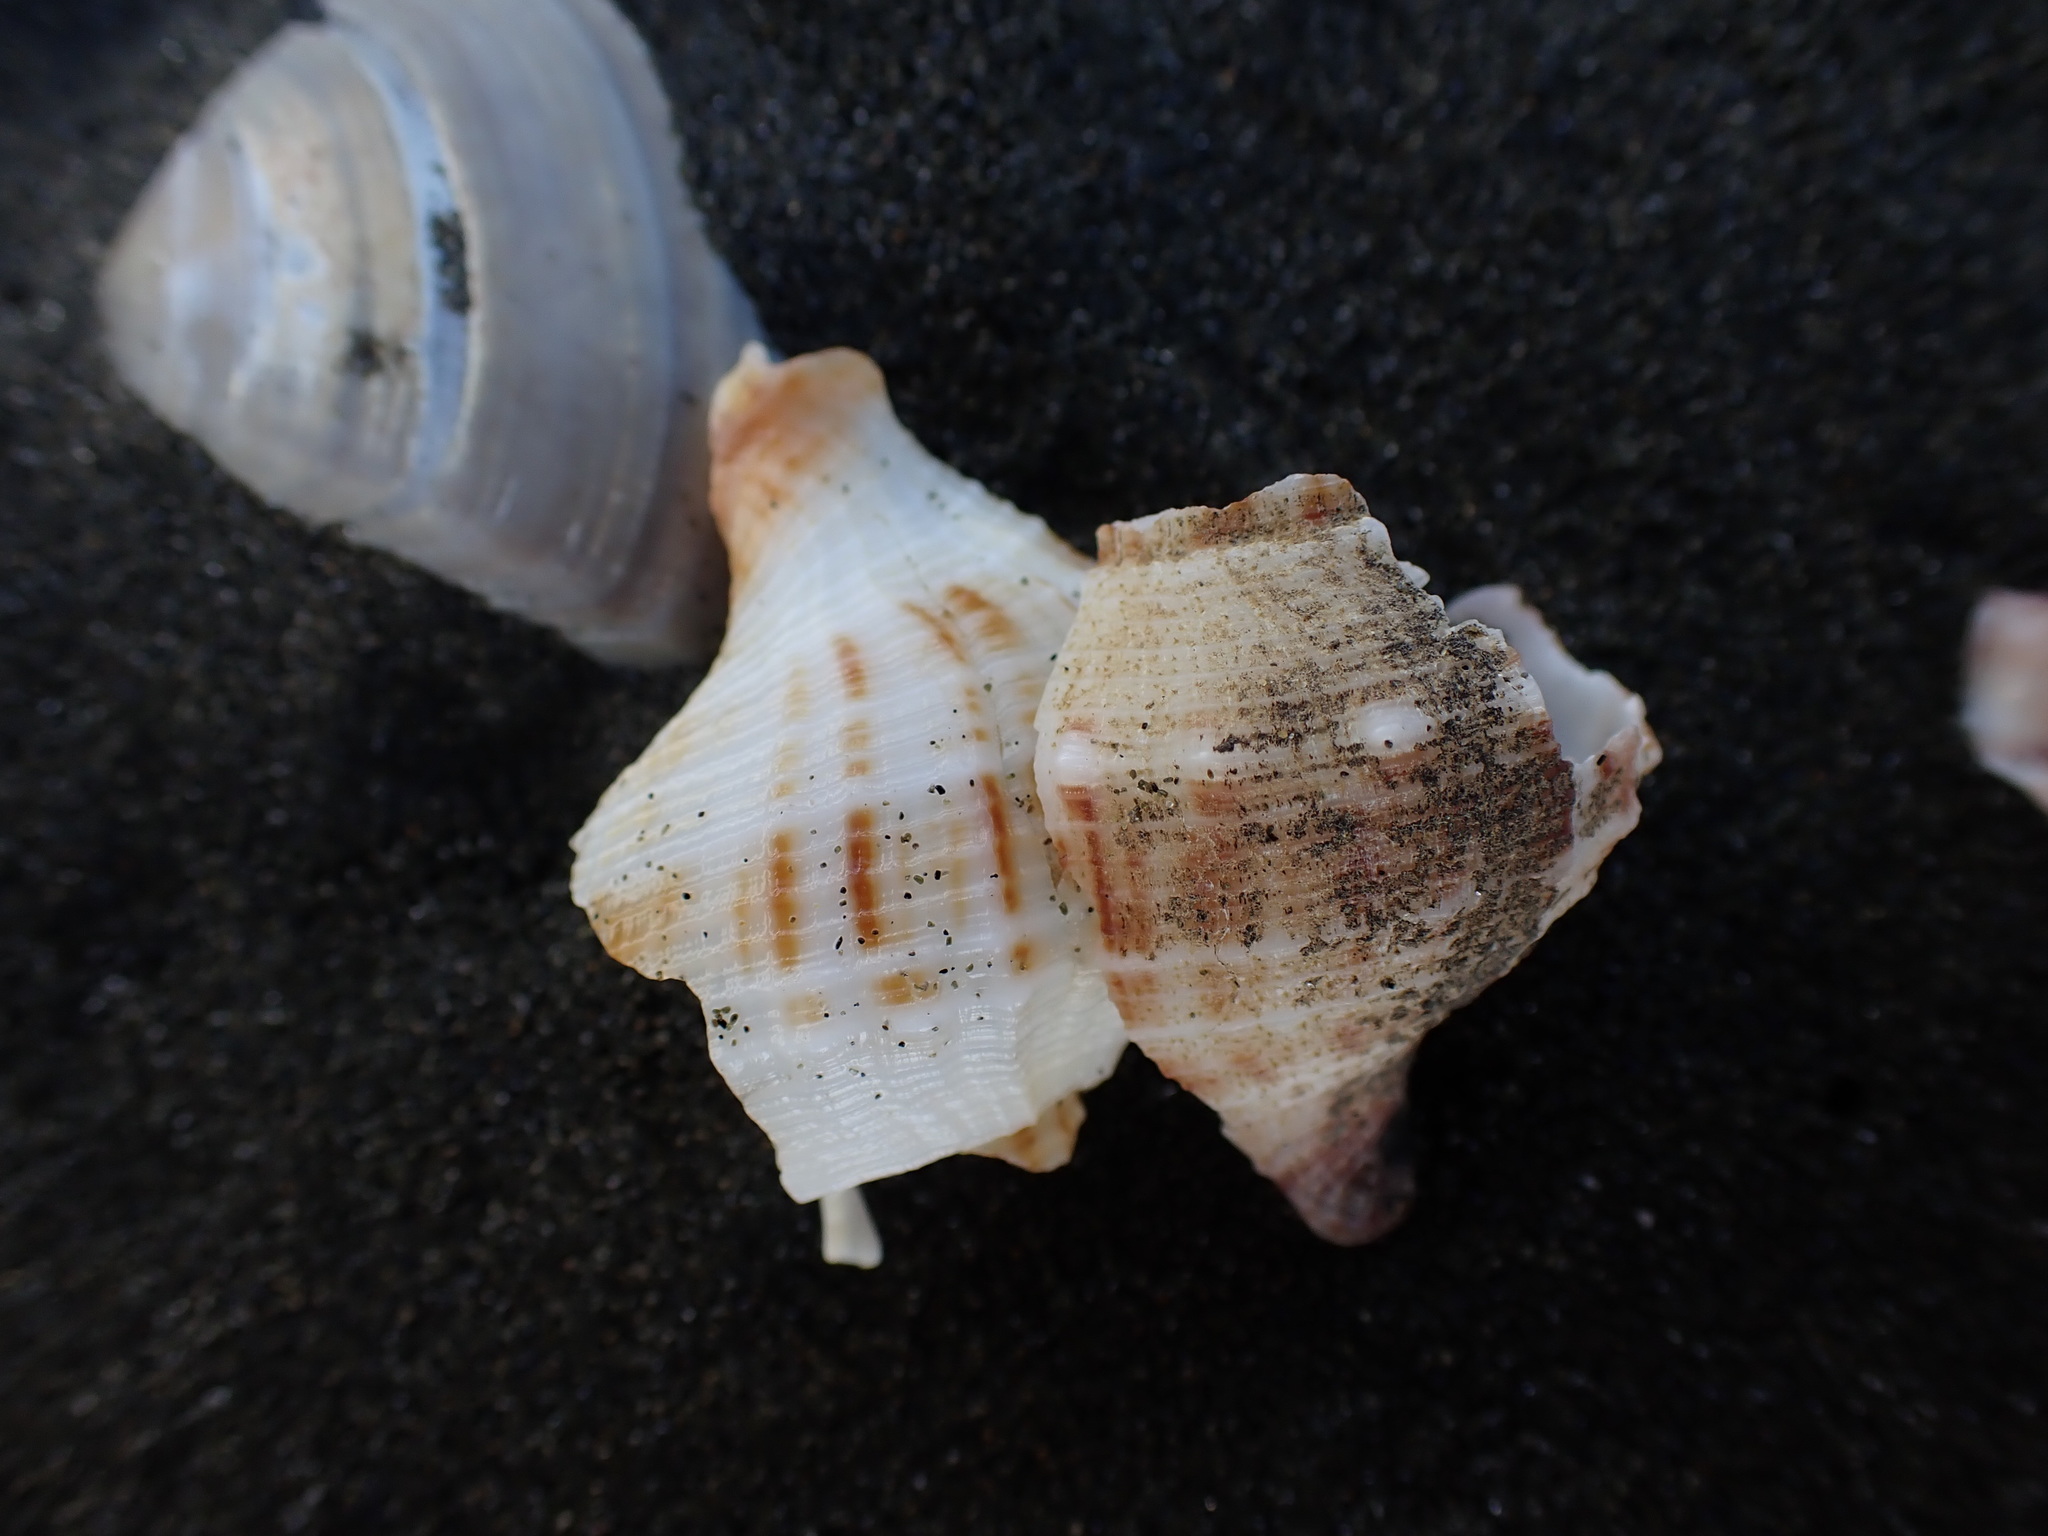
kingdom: Animalia
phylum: Mollusca
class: Gastropoda
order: Neogastropoda
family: Prosiphonidae
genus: Austrofusus
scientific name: Austrofusus glans
